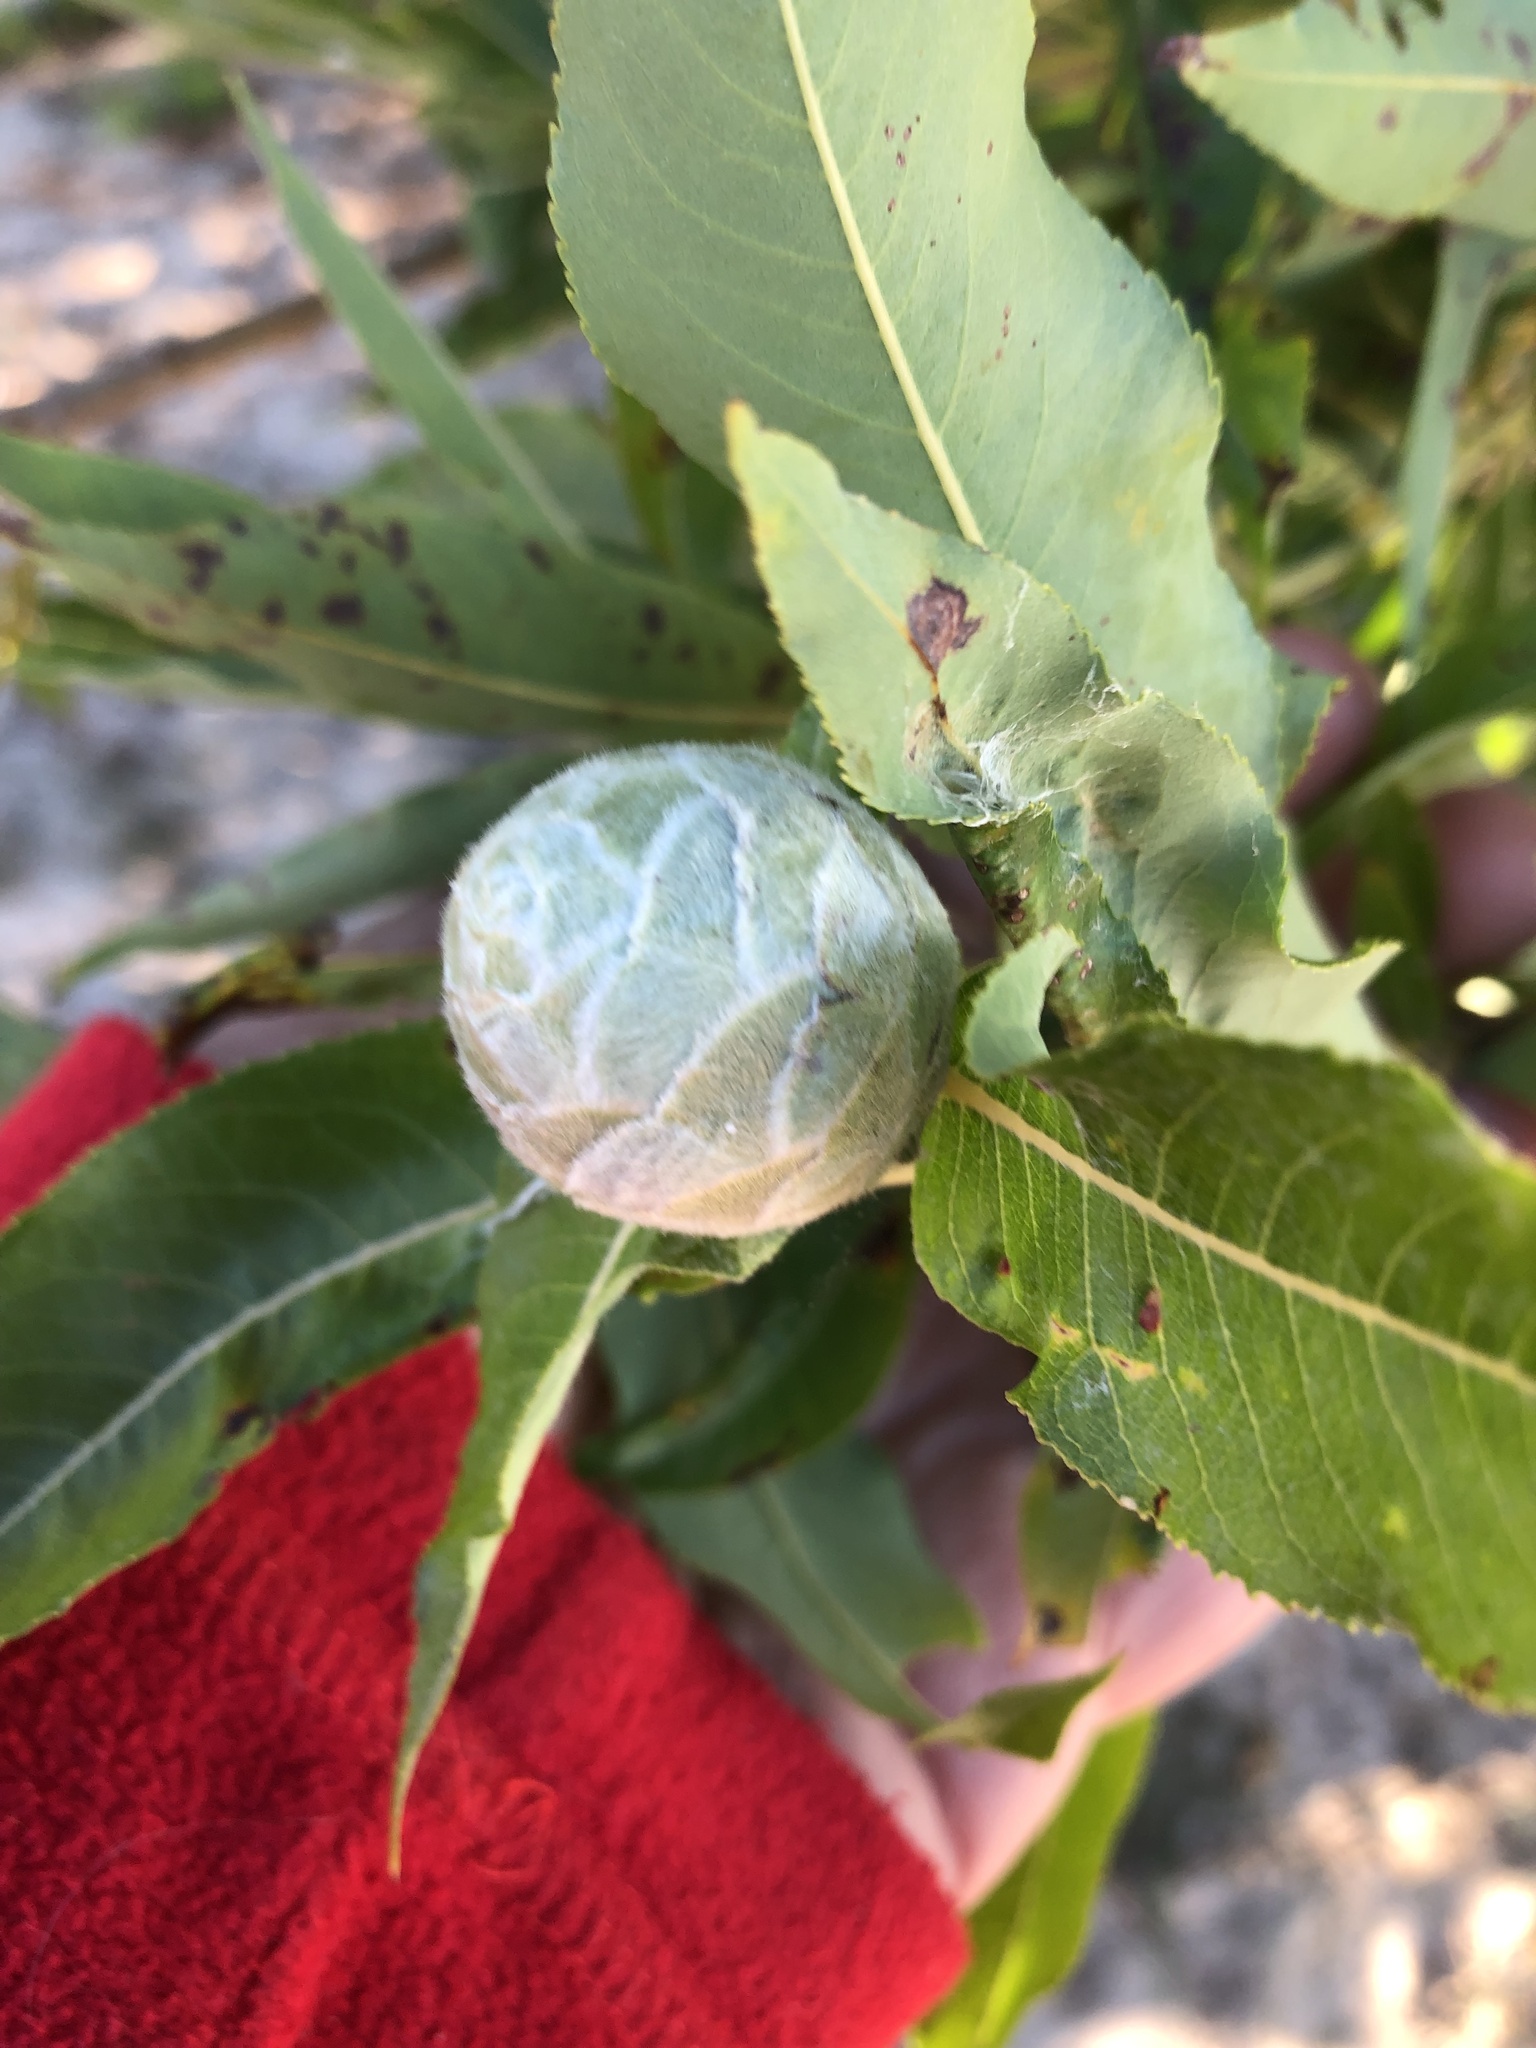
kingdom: Animalia
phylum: Arthropoda
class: Insecta
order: Diptera
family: Cecidomyiidae
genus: Rabdophaga
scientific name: Rabdophaga strobiloides
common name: Willow pinecone gall midge
